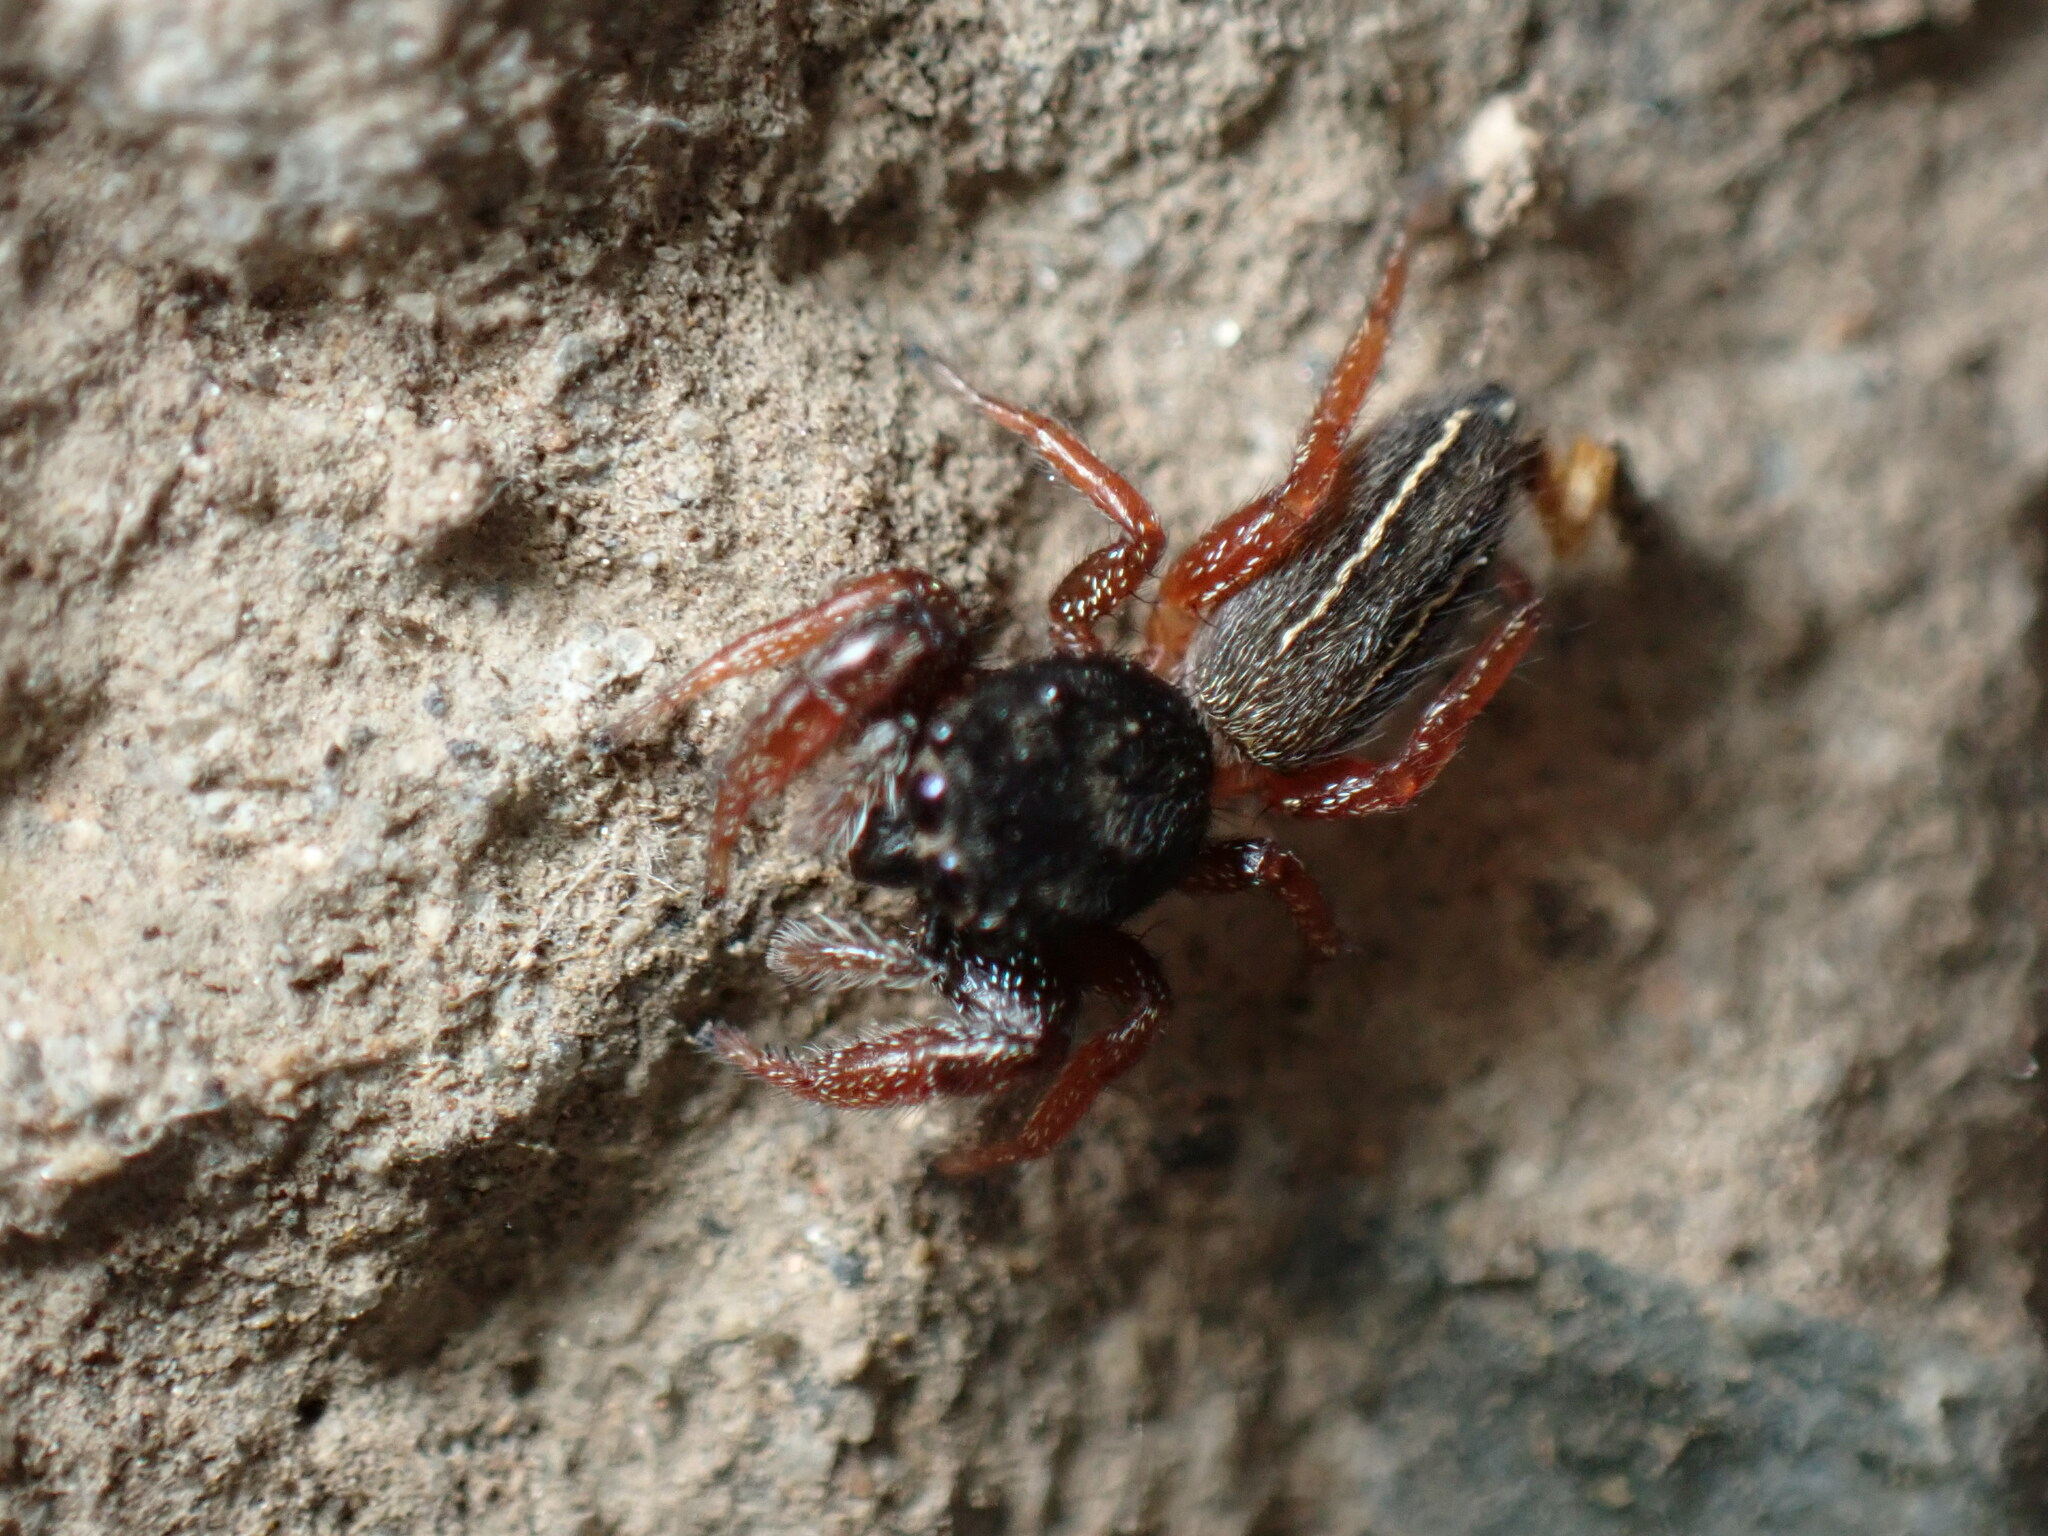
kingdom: Animalia
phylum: Arthropoda
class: Arachnida
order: Araneae
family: Salticidae
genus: Metacyrba
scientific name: Metacyrba taeniola
